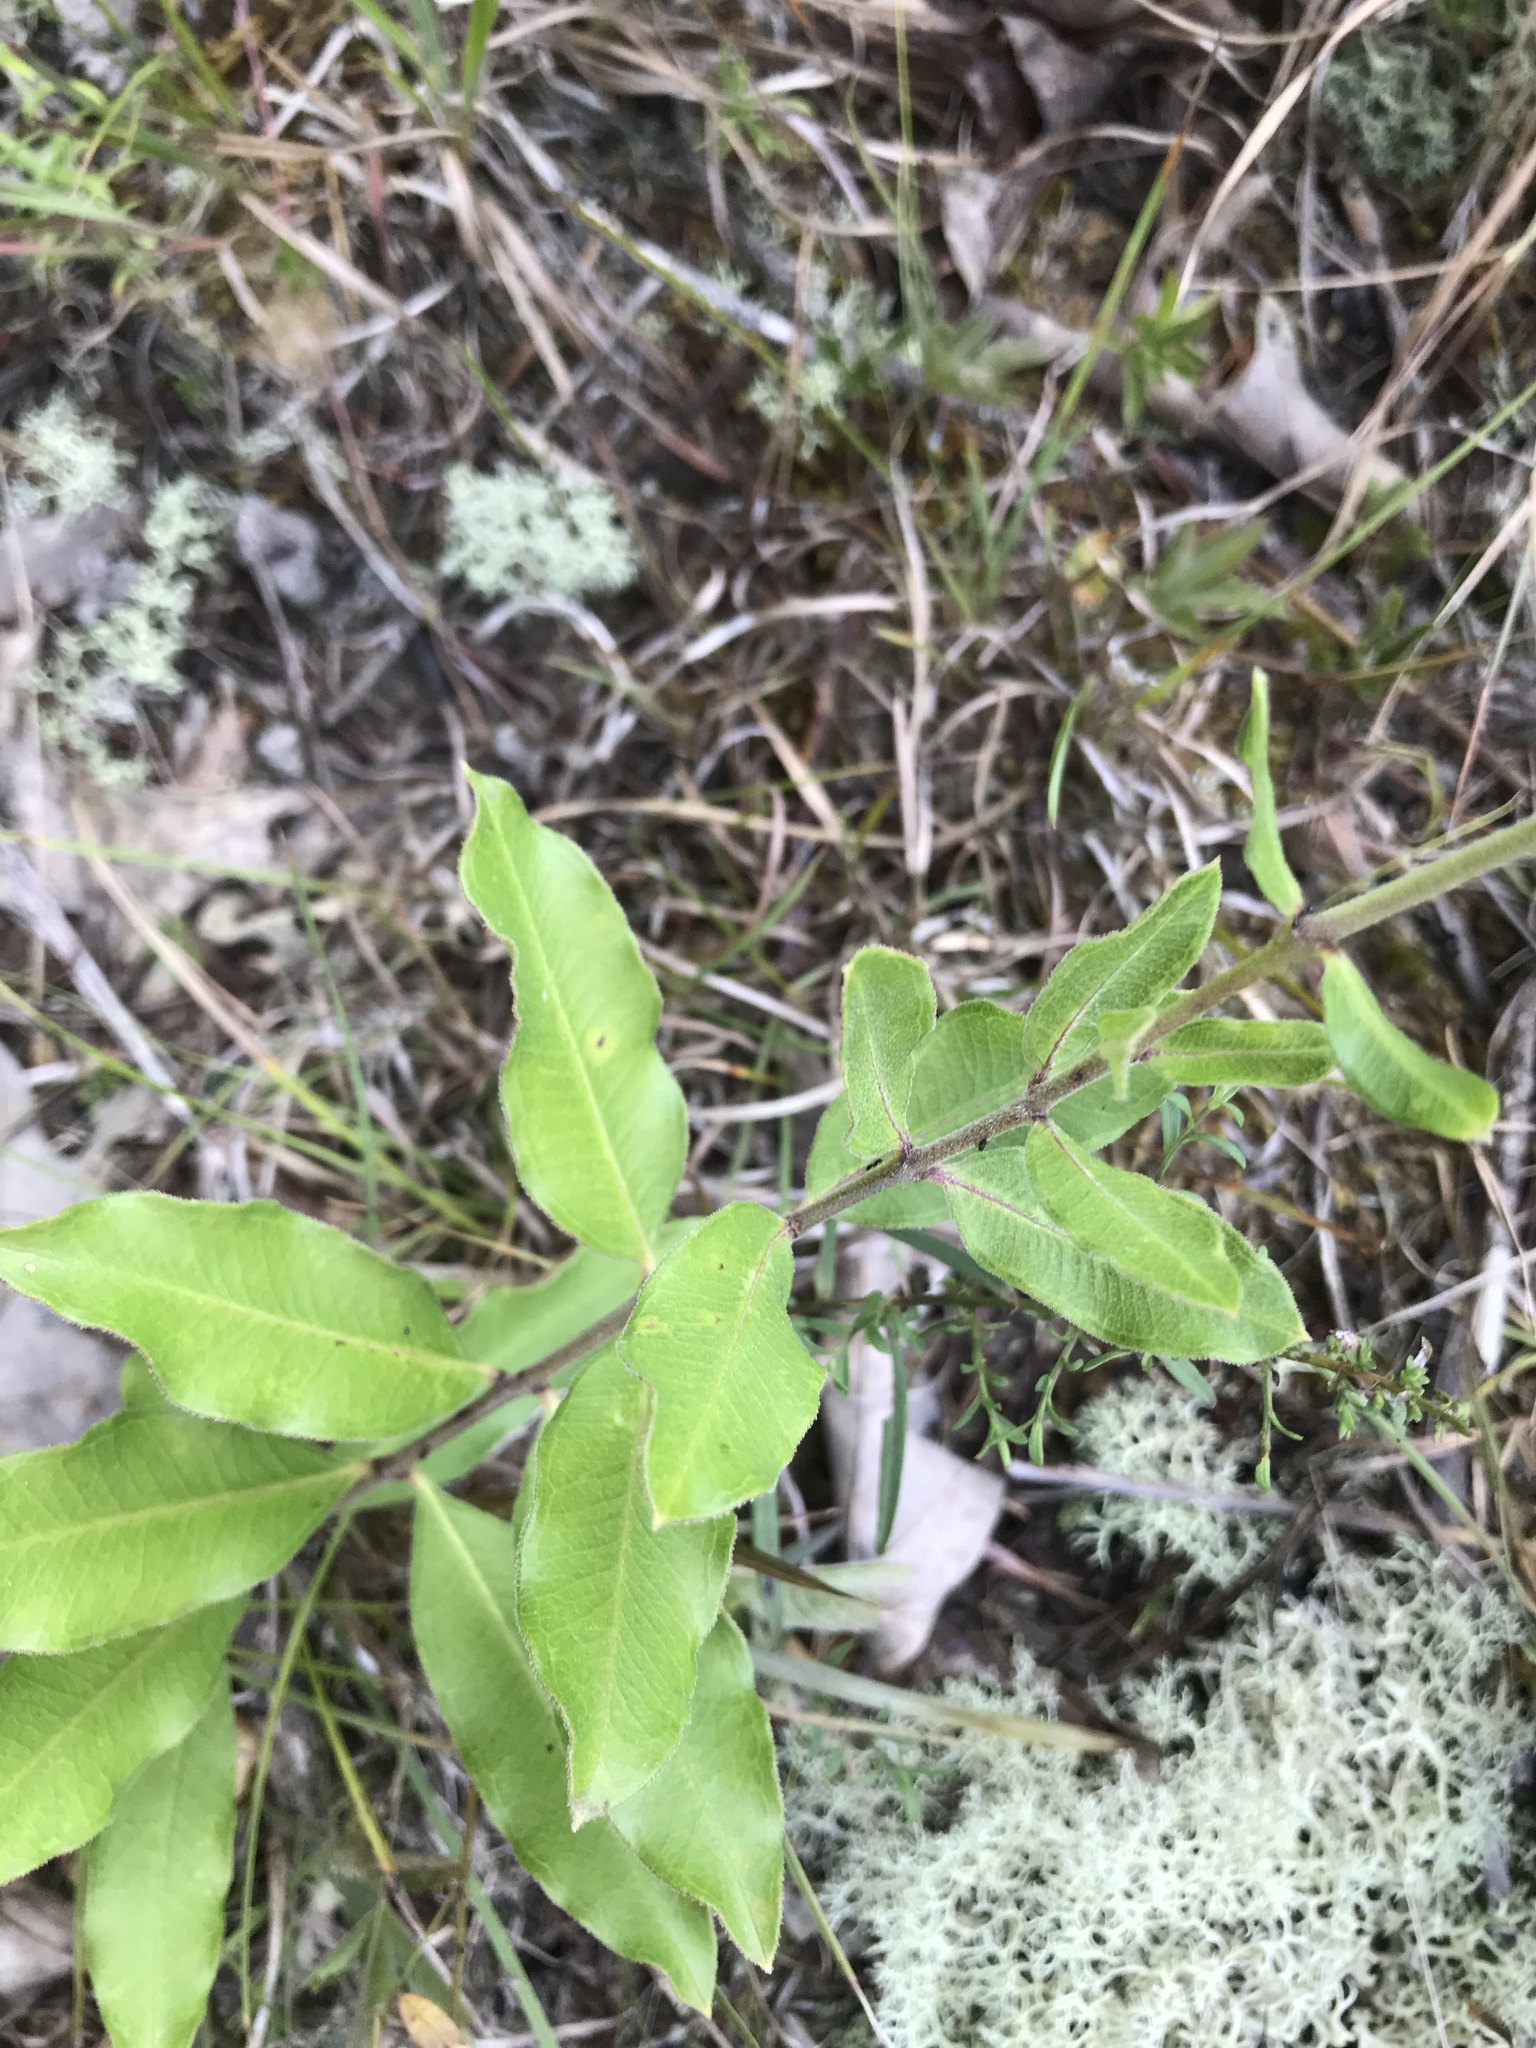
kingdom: Plantae
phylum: Tracheophyta
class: Magnoliopsida
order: Gentianales
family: Apocynaceae
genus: Asclepias
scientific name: Asclepias viridiflora
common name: Green comet milkweed
